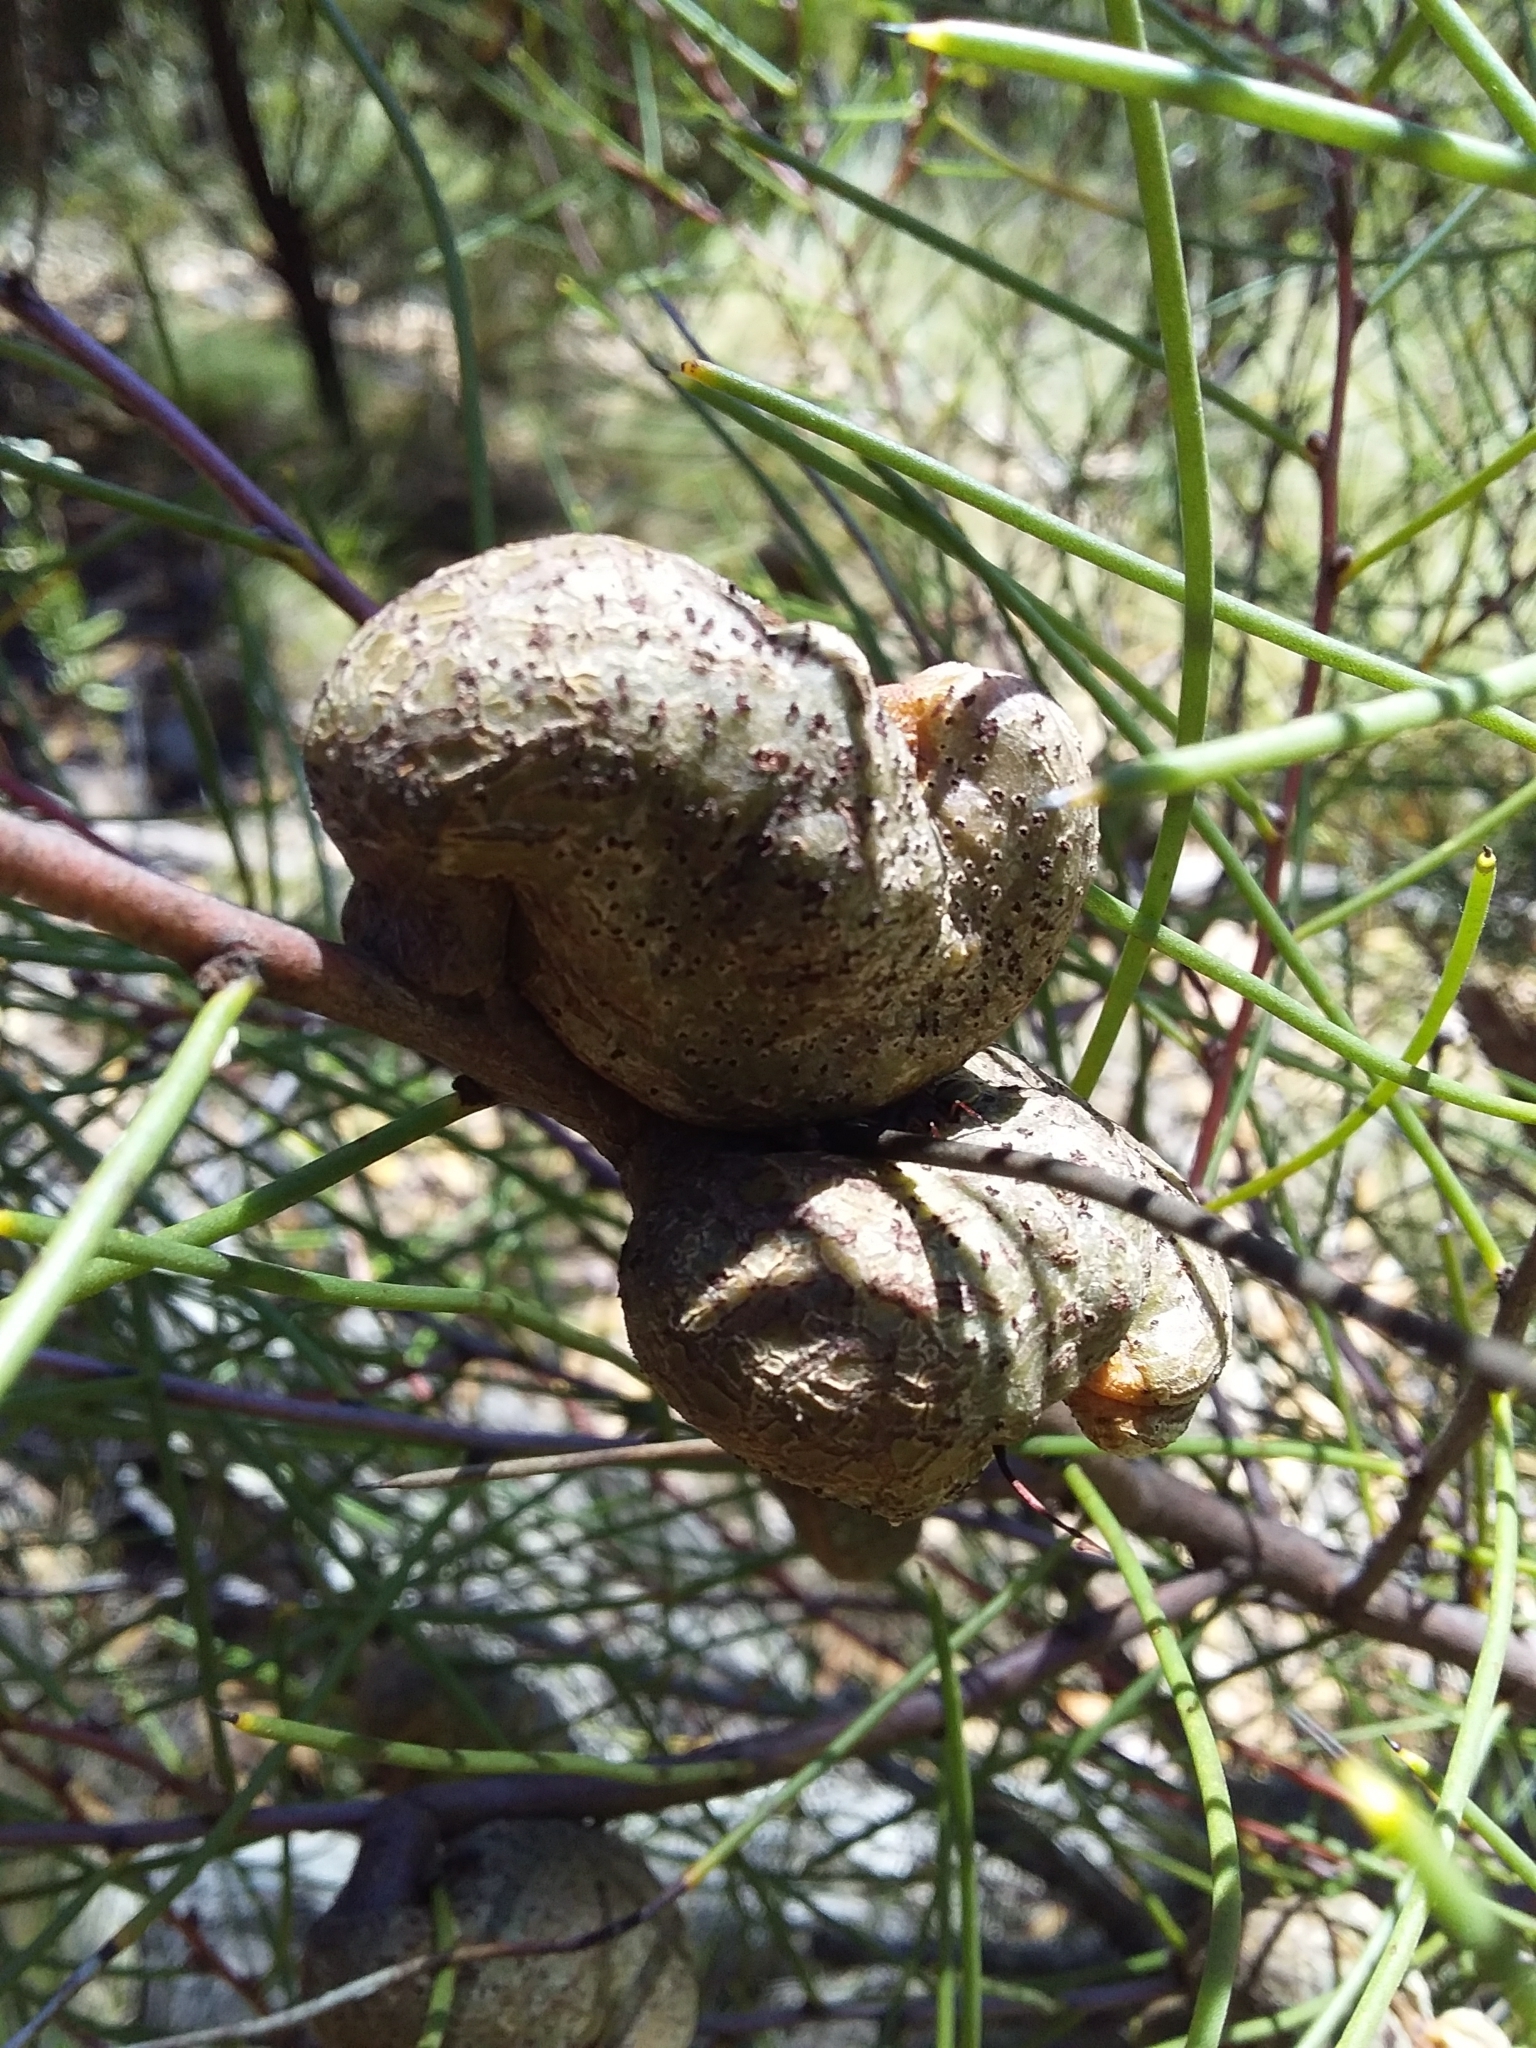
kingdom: Plantae
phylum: Tracheophyta
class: Magnoliopsida
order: Proteales
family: Proteaceae
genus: Hakea
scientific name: Hakea rostrata
